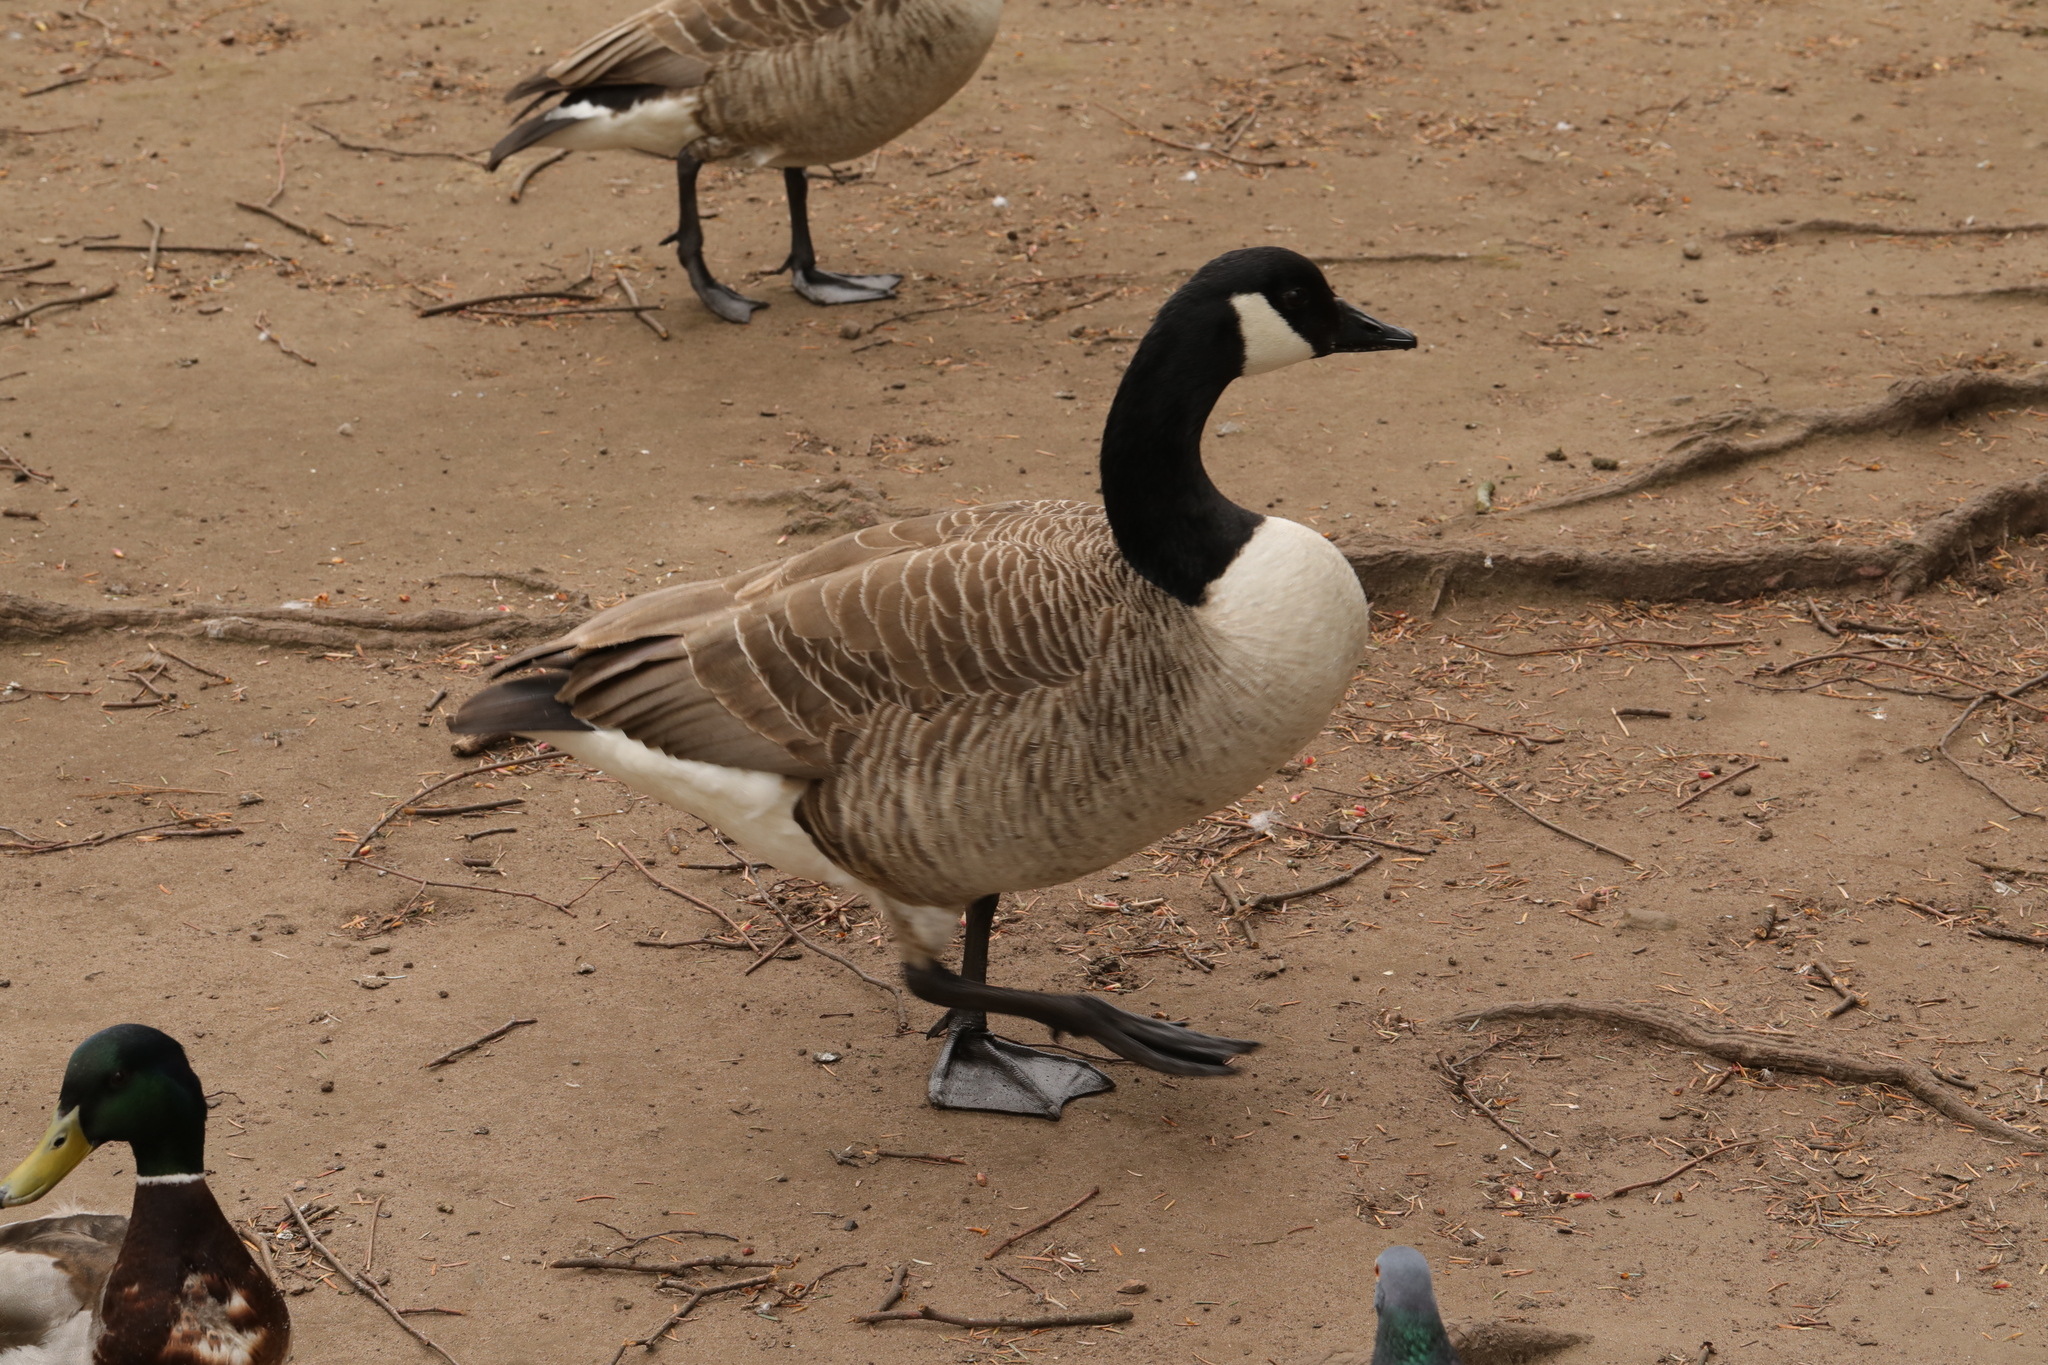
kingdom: Animalia
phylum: Chordata
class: Aves
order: Anseriformes
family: Anatidae
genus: Branta
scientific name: Branta canadensis
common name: Canada goose
